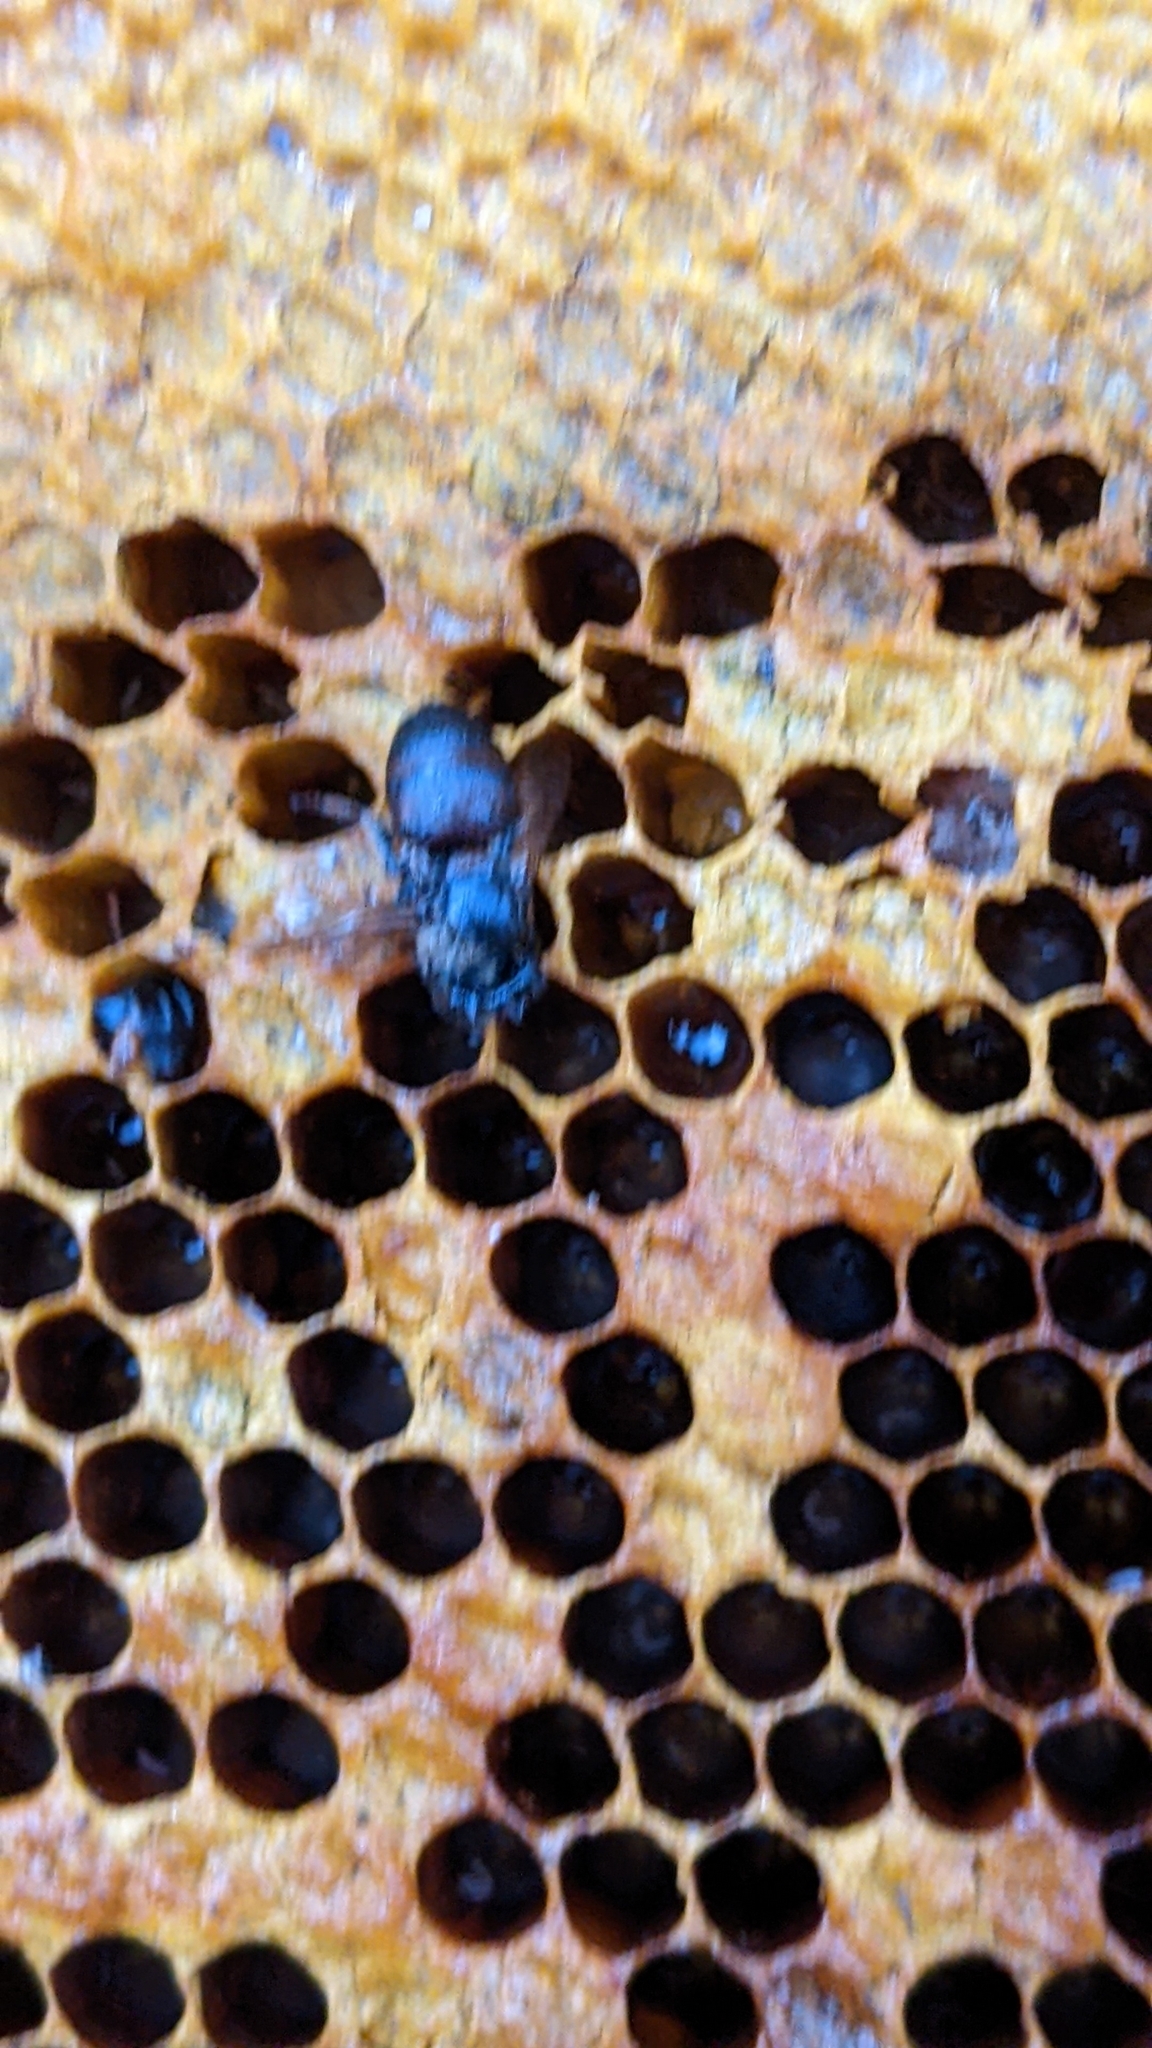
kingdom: Animalia
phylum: Arthropoda
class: Insecta
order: Hymenoptera
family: Apidae
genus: Apis
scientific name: Apis mellifera
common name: Honey bee
